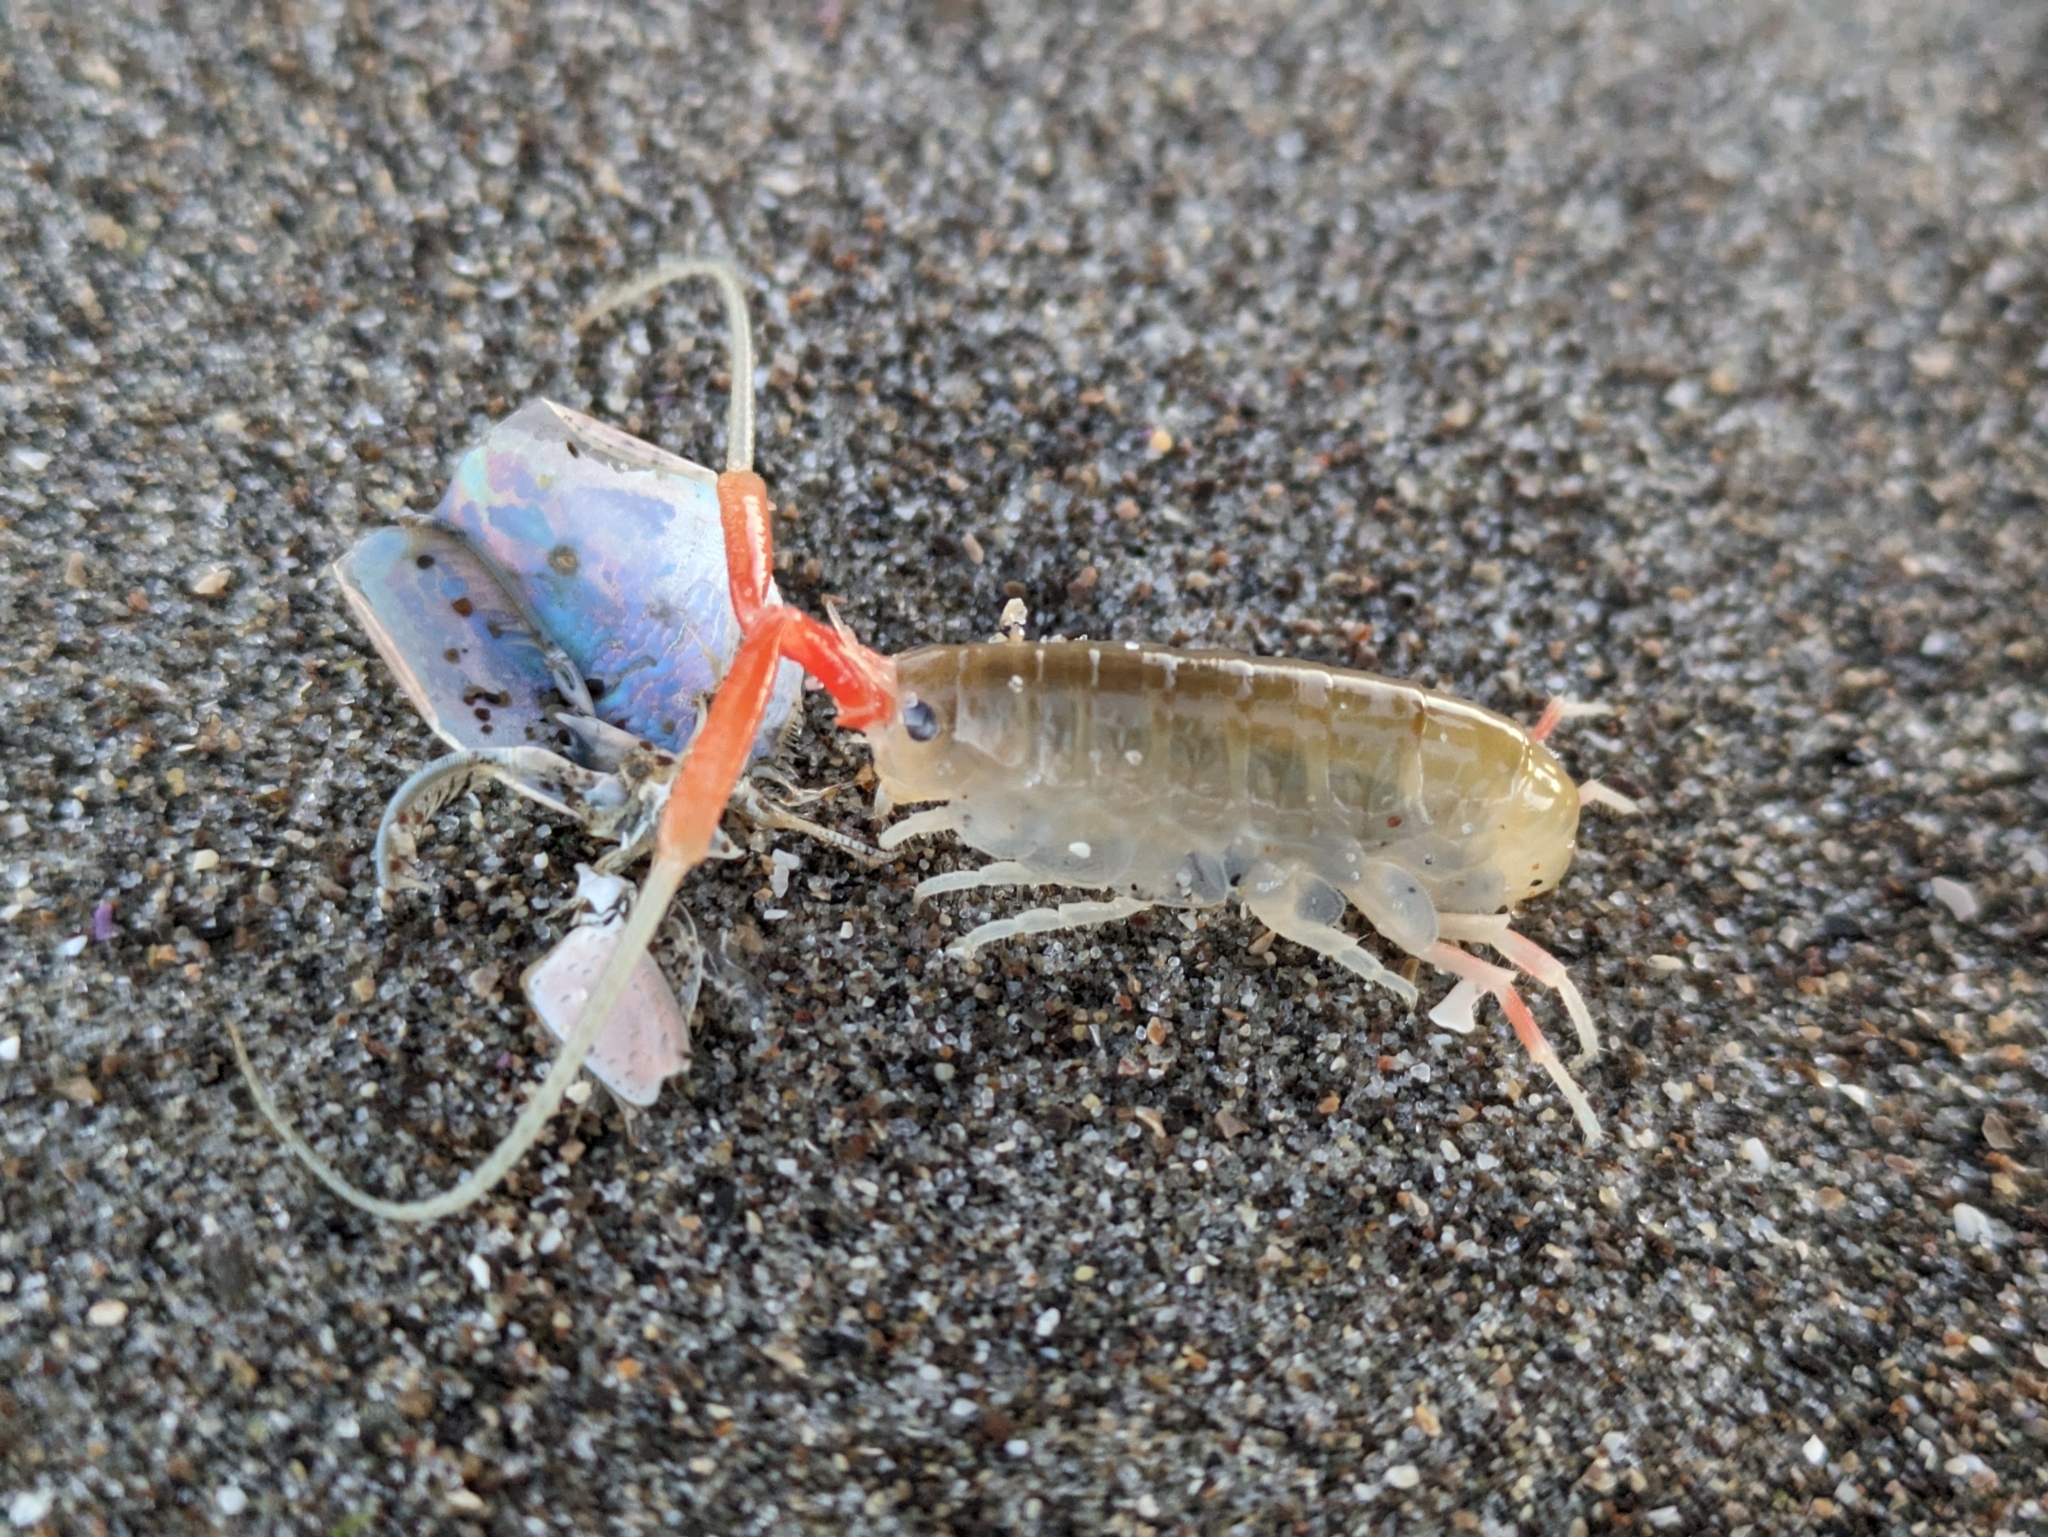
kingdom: Animalia
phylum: Arthropoda
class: Malacostraca
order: Amphipoda
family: Talitridae
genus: Megalorchestia
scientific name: Megalorchestia californiana
